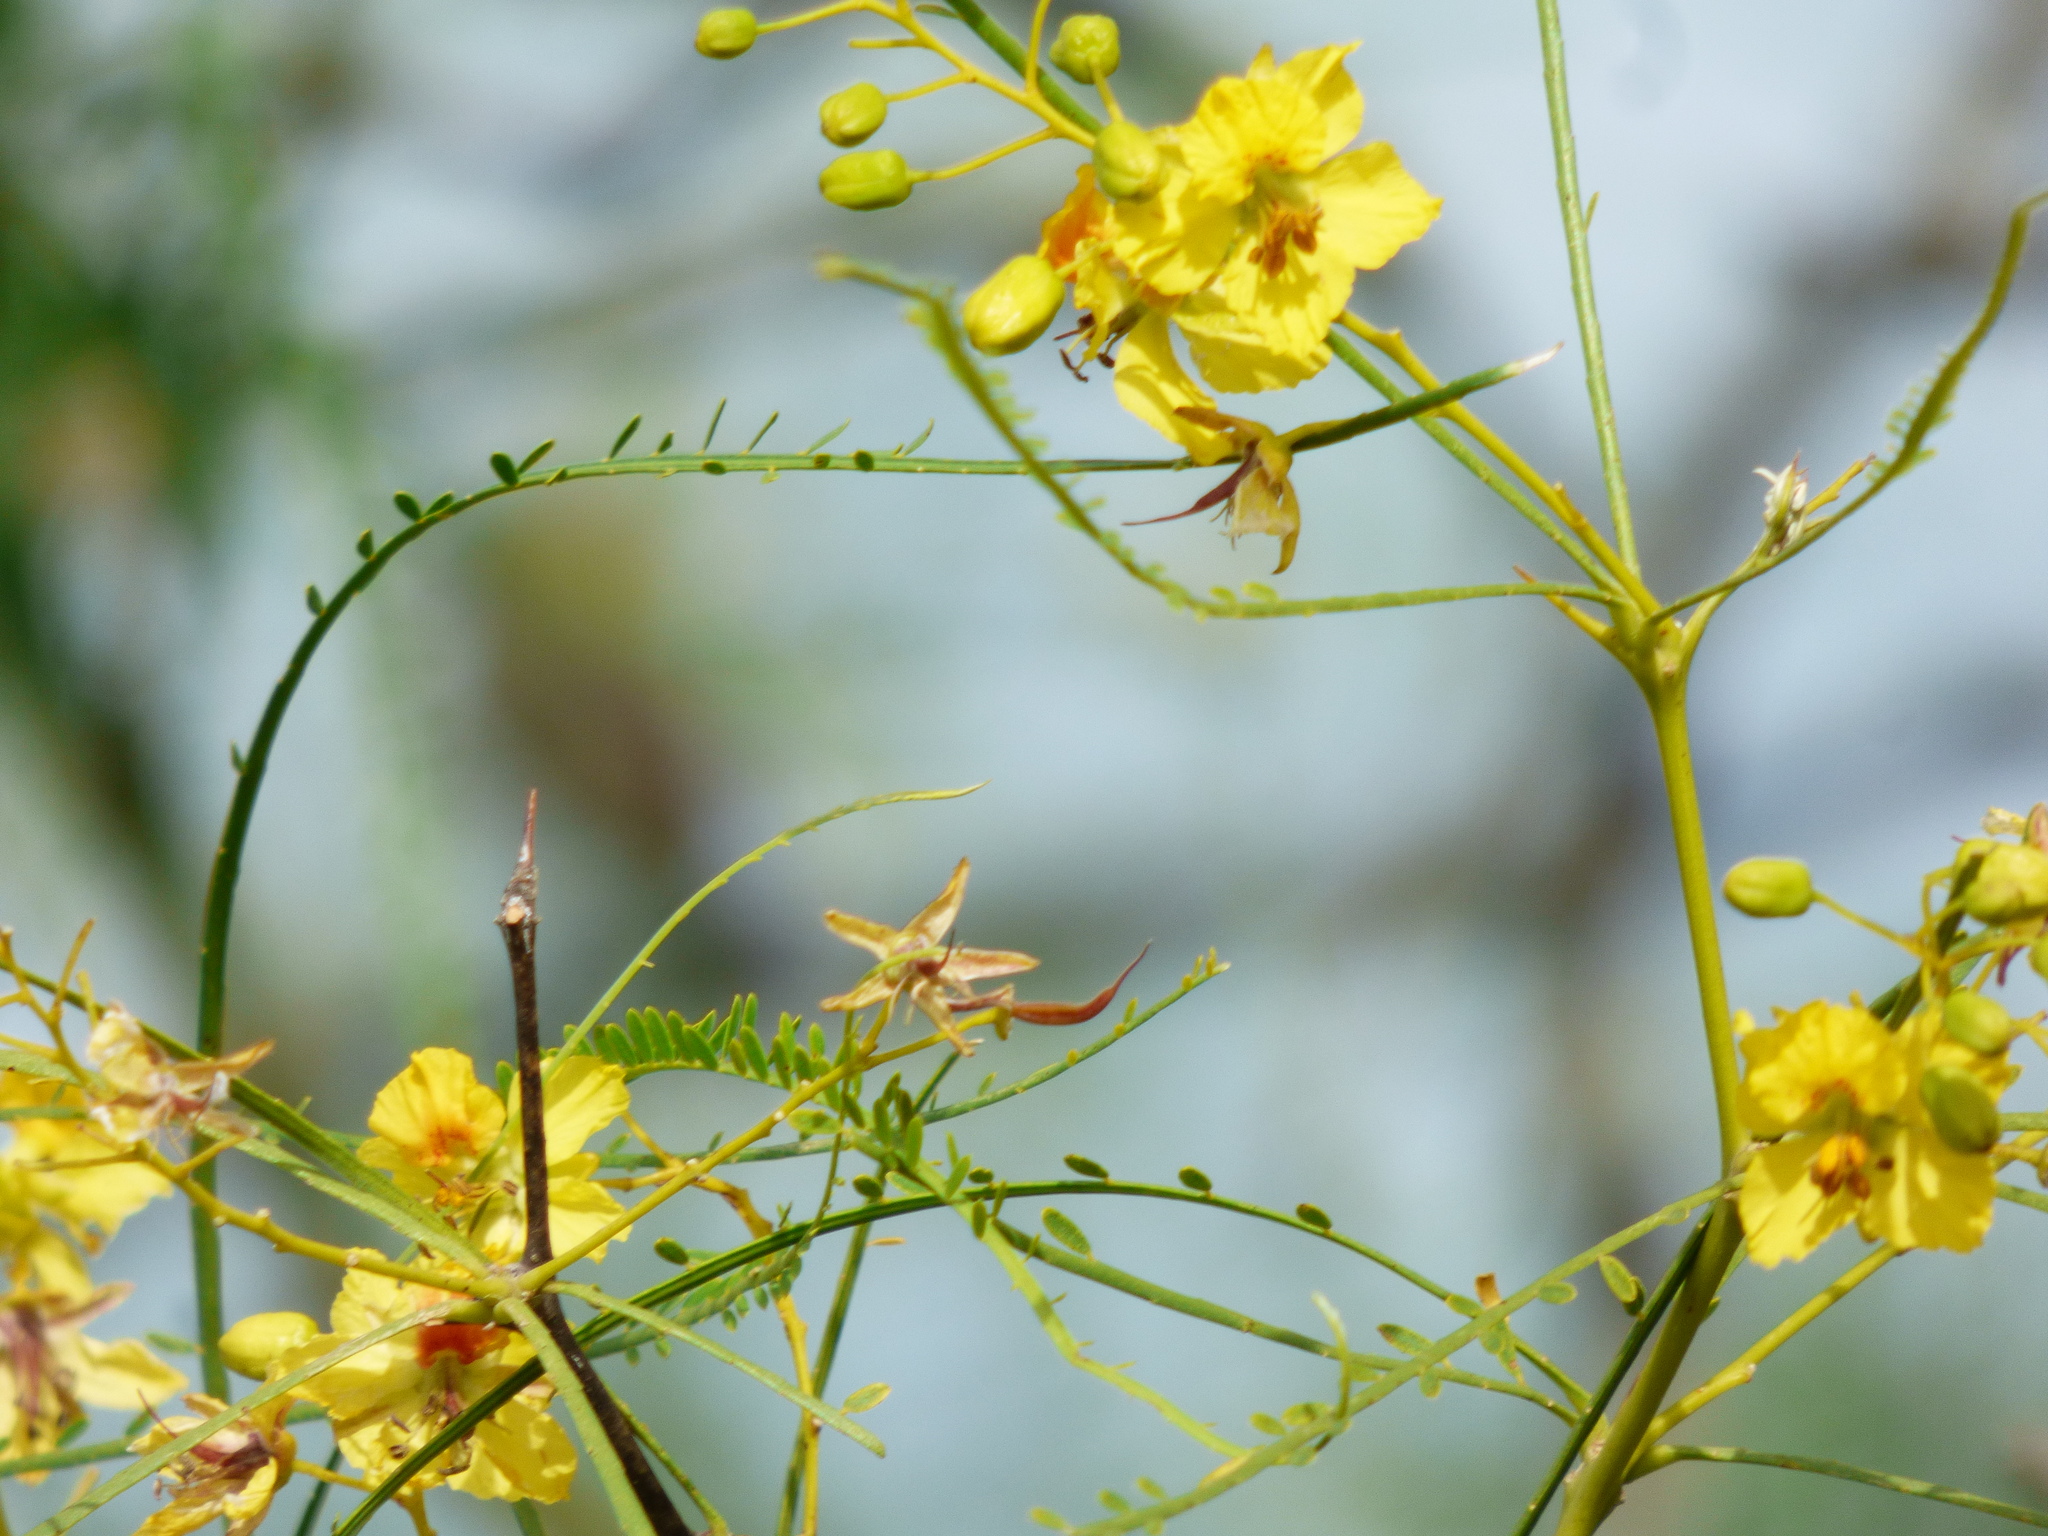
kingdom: Plantae
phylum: Tracheophyta
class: Magnoliopsida
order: Fabales
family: Fabaceae
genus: Parkinsonia
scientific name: Parkinsonia aculeata
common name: Jerusalem thorn
